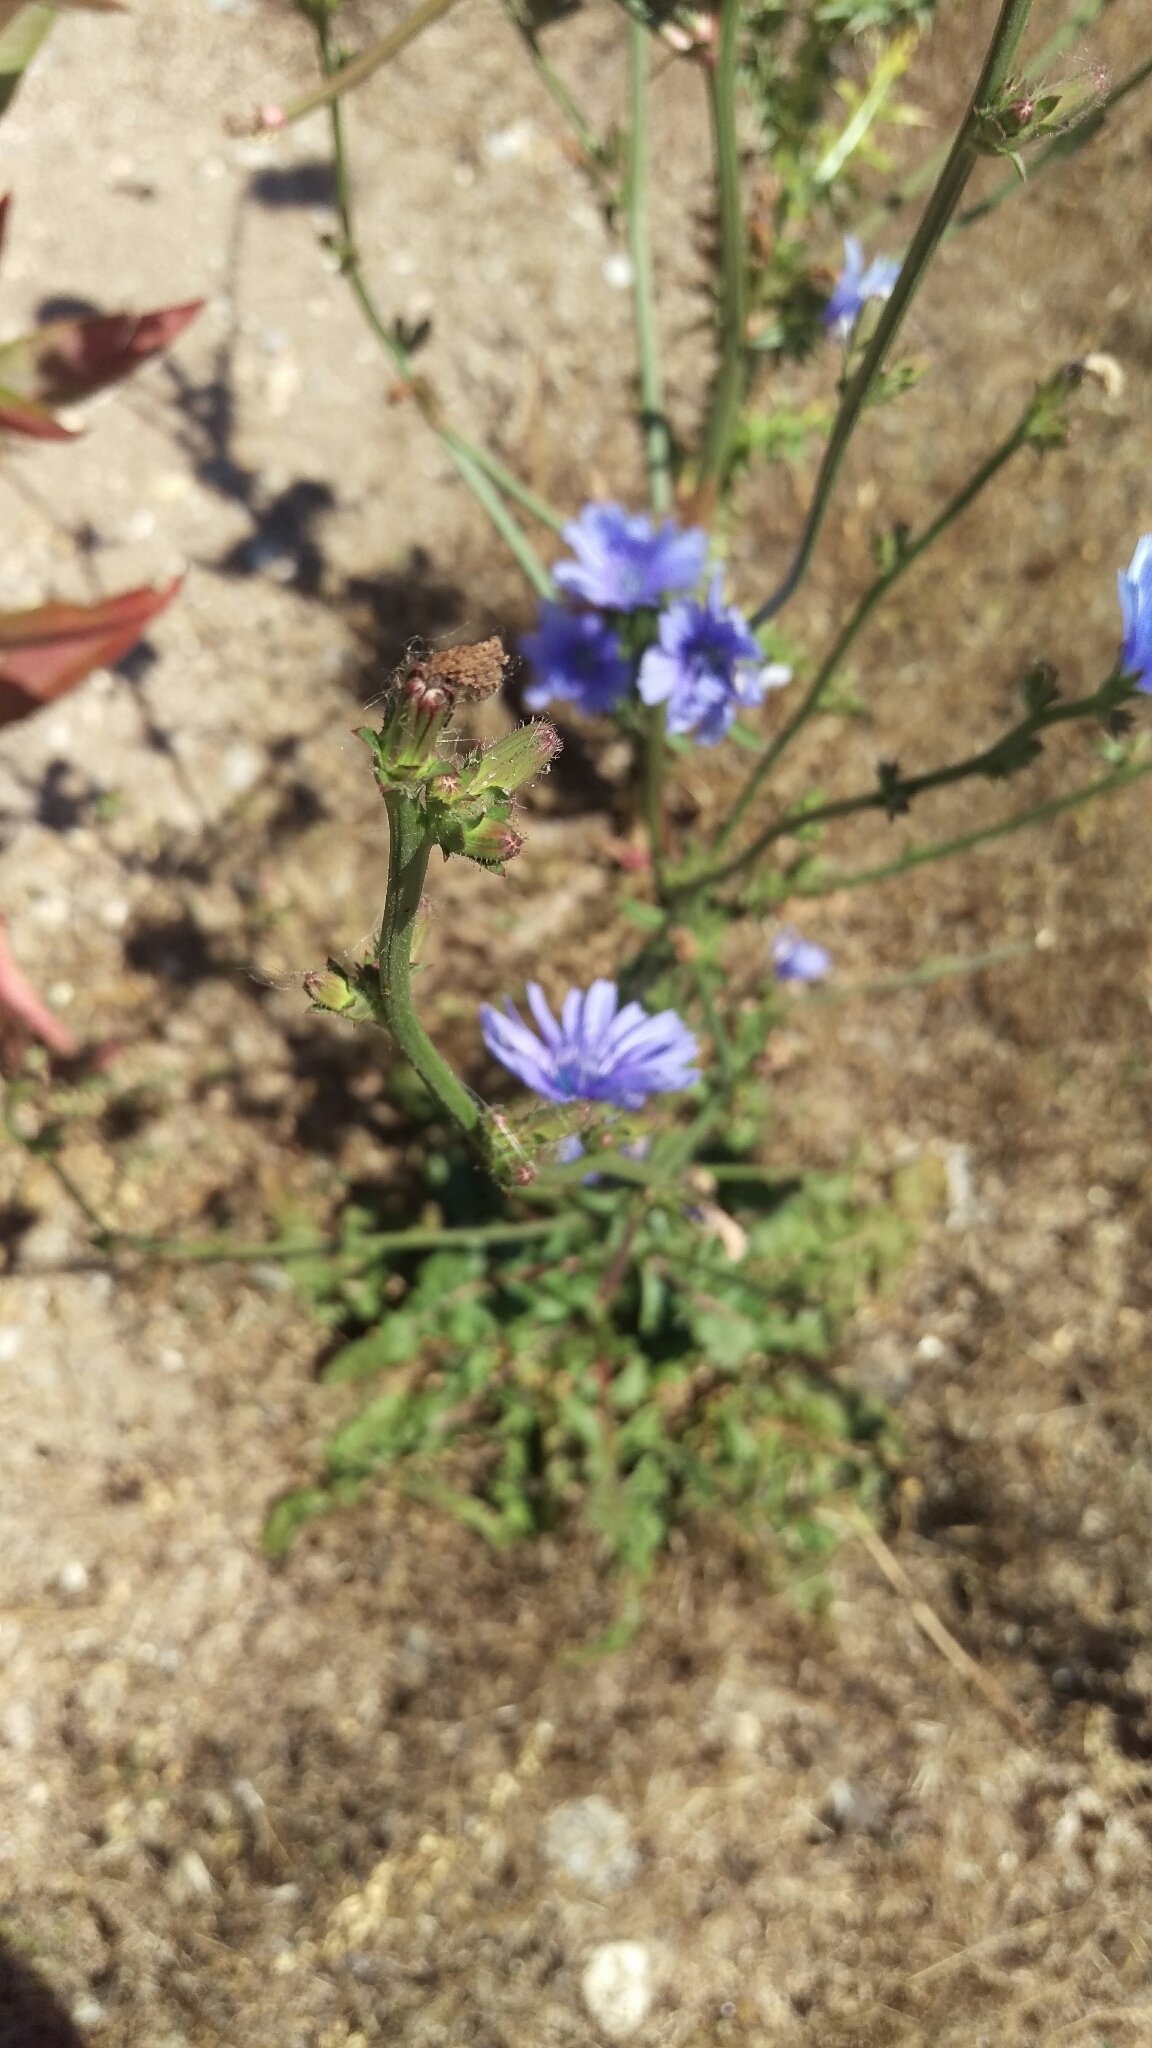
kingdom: Plantae
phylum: Tracheophyta
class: Magnoliopsida
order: Asterales
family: Asteraceae
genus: Cichorium
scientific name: Cichorium intybus
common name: Chicory
